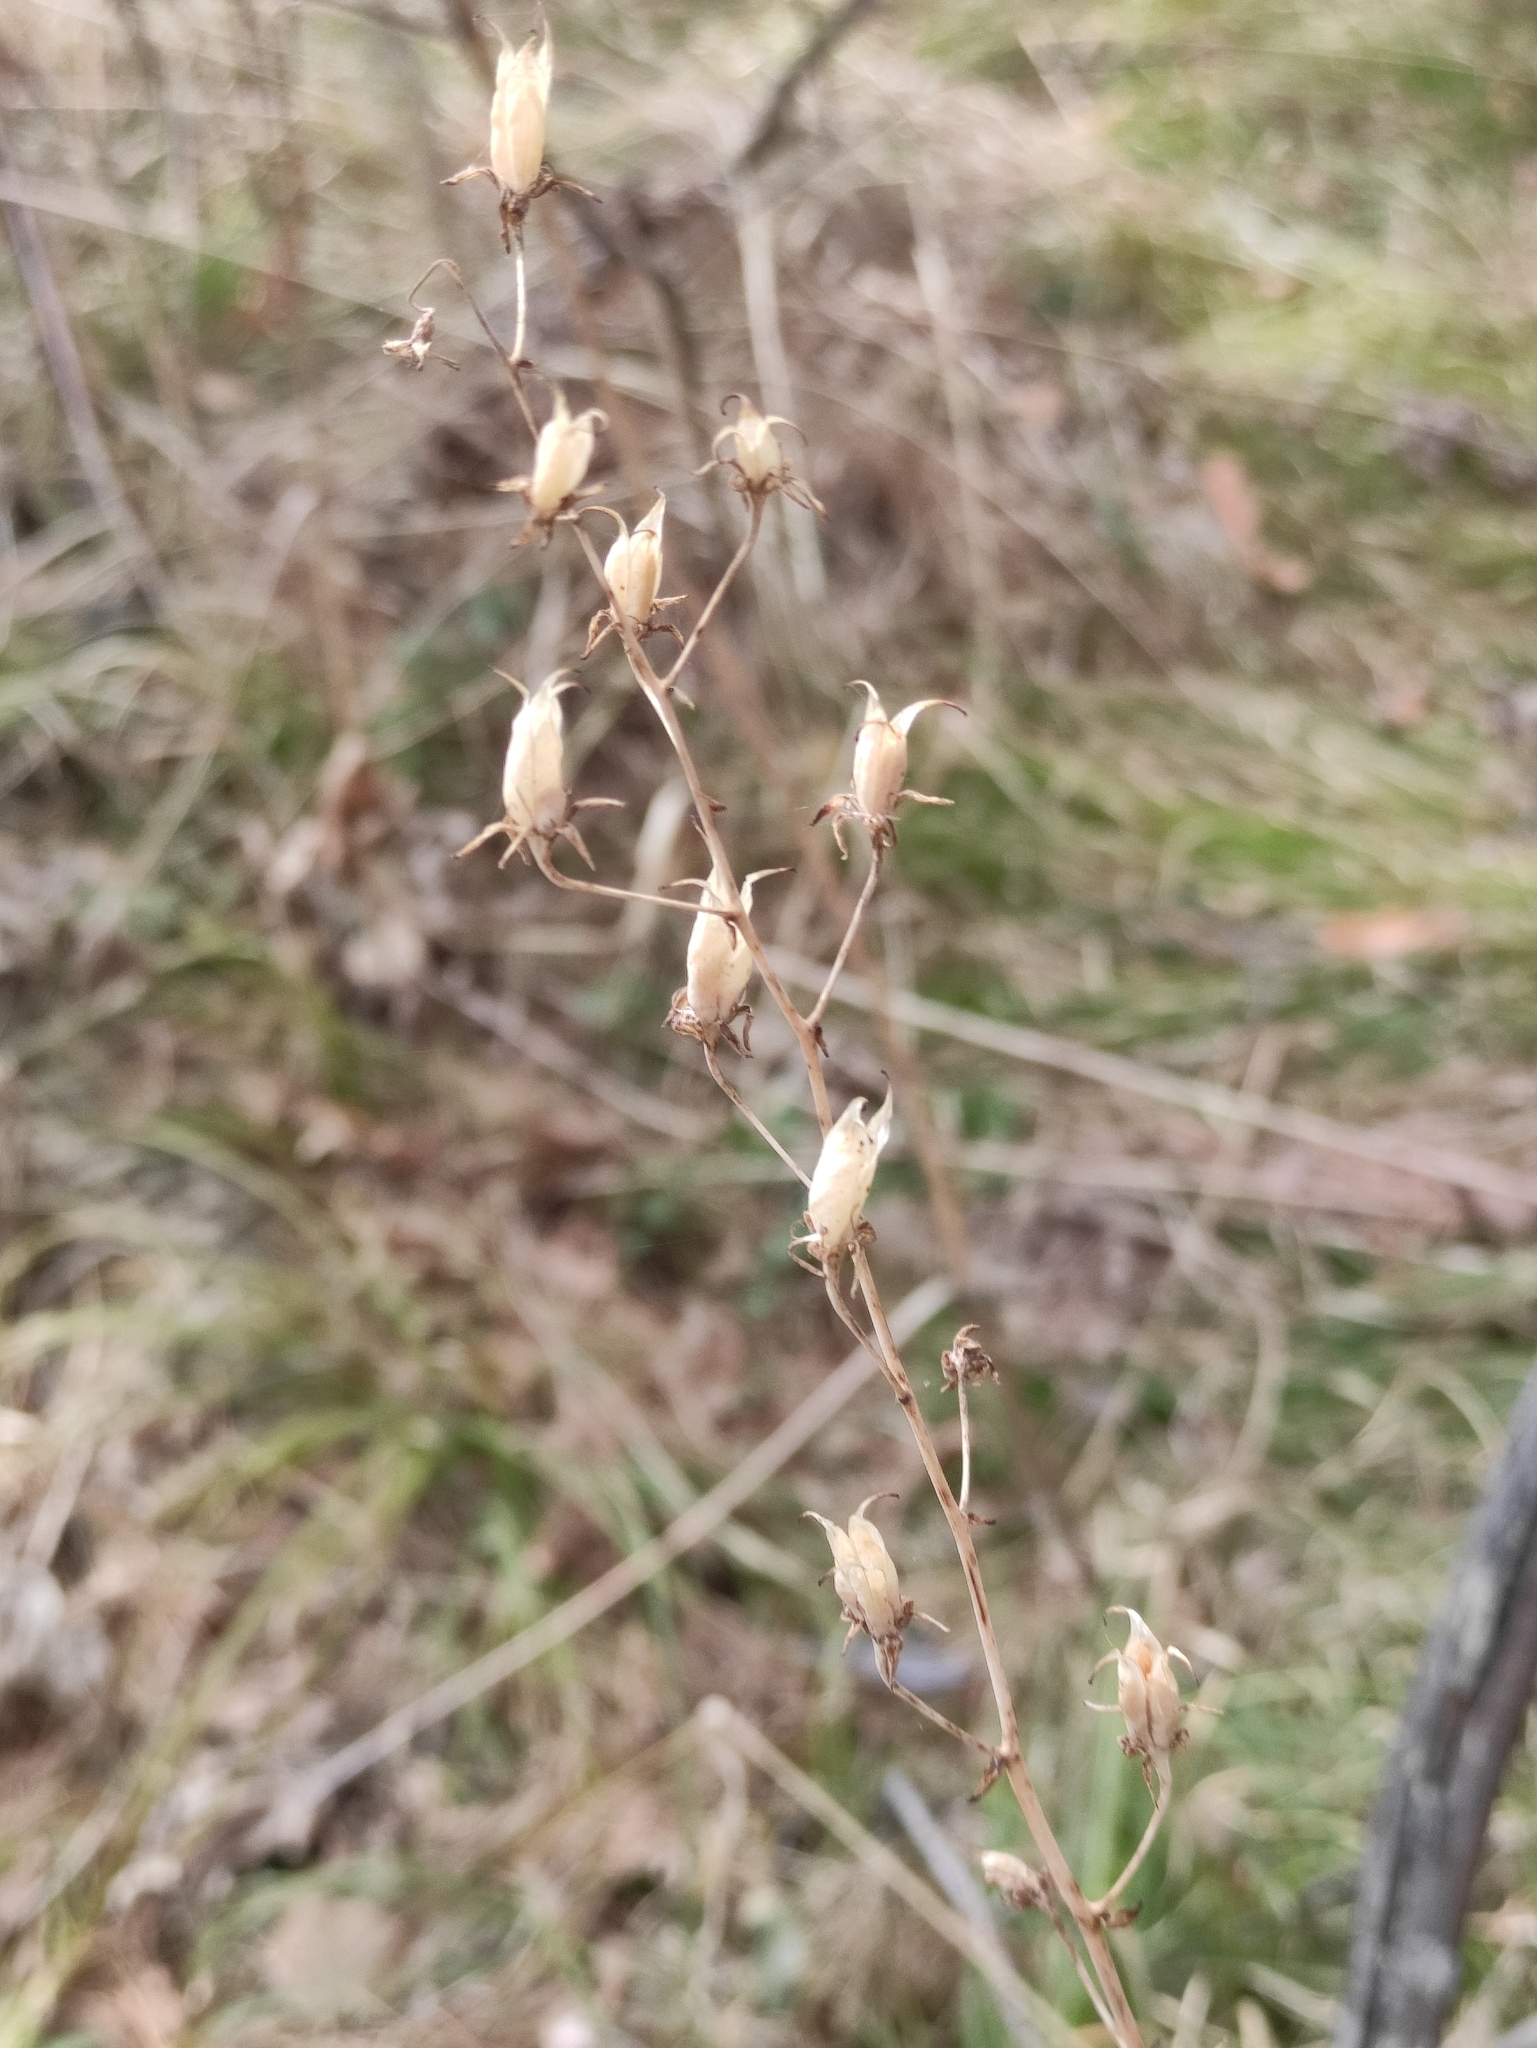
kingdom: Plantae
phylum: Tracheophyta
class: Liliopsida
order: Liliales
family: Melanthiaceae
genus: Anticlea
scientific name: Anticlea sibirica
